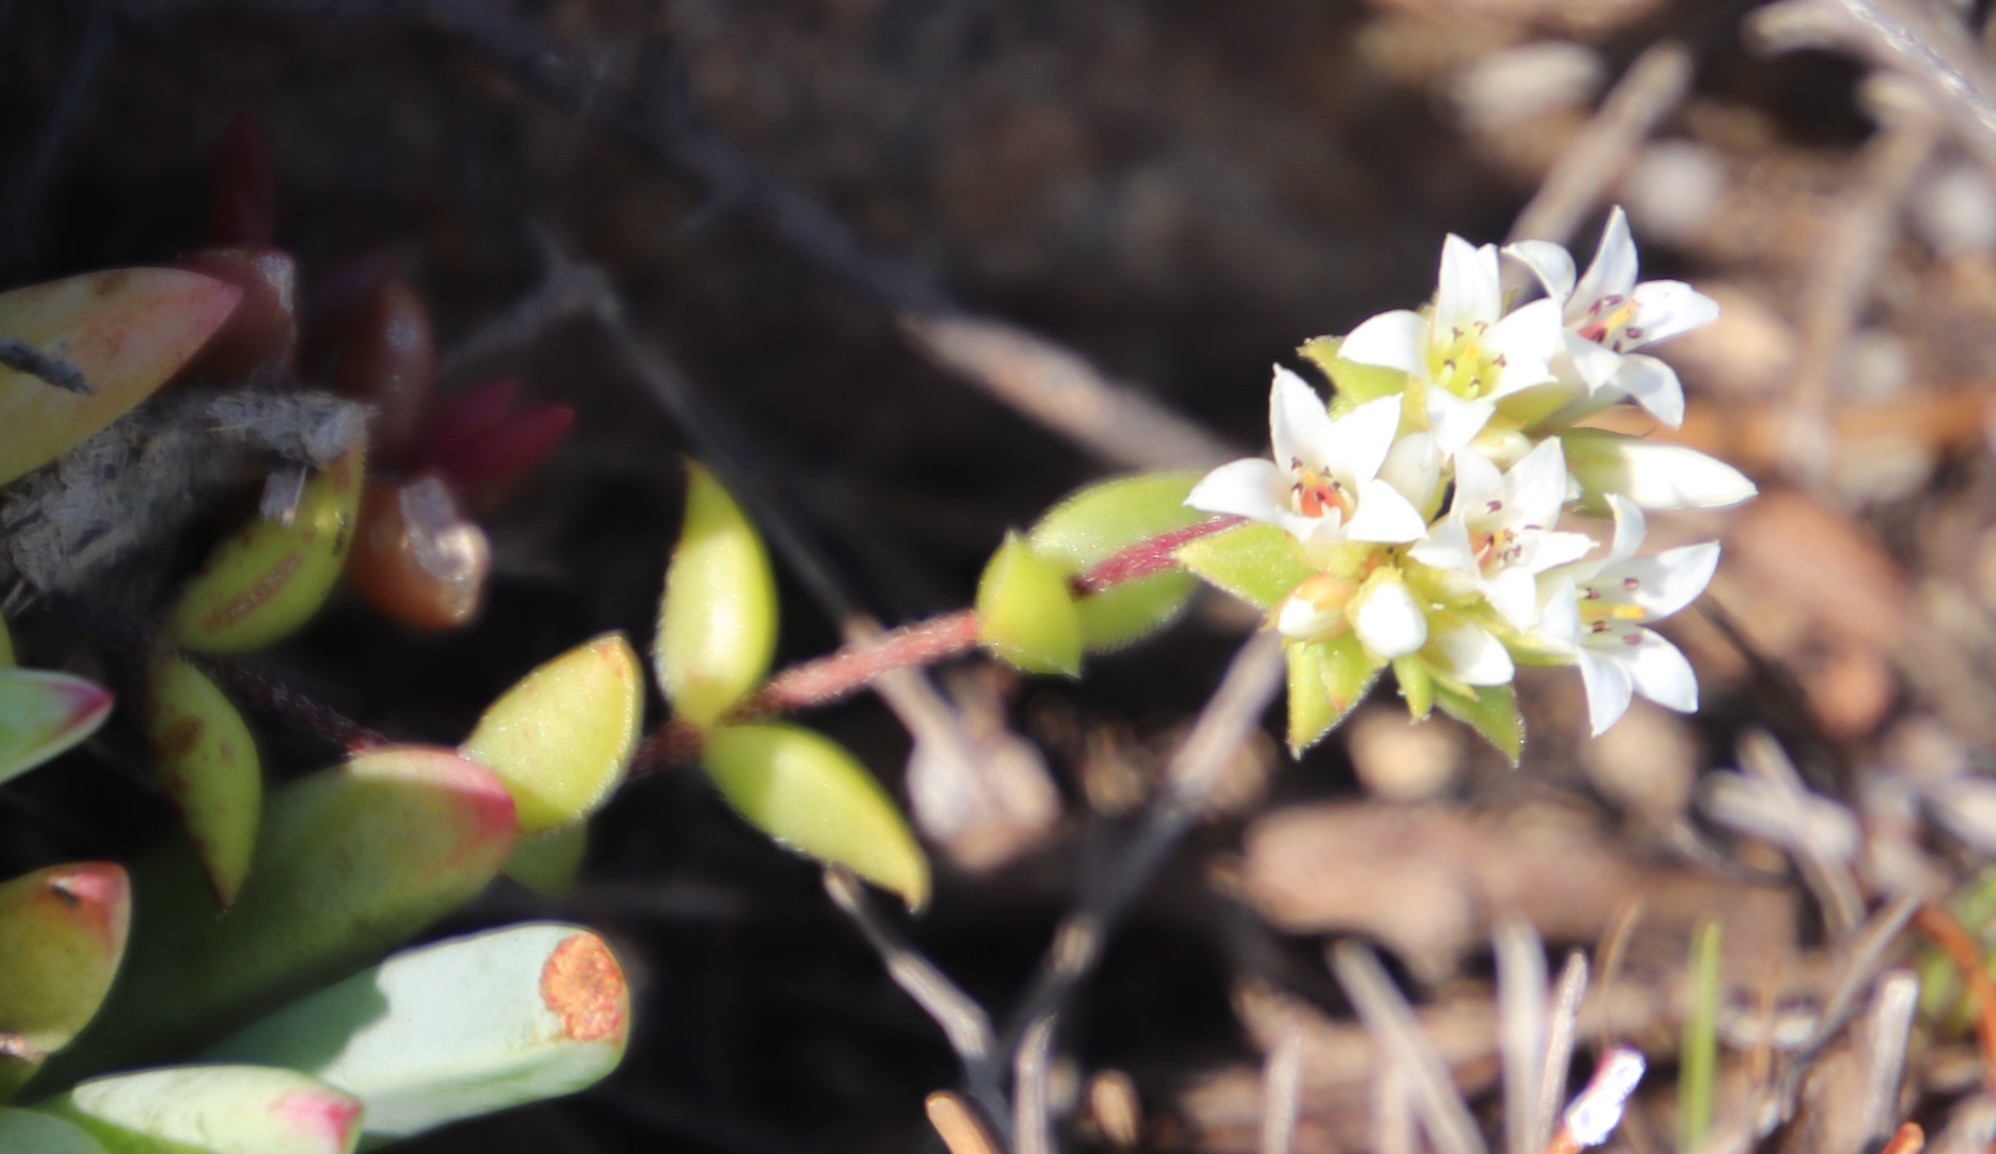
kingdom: Plantae
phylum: Tracheophyta
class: Magnoliopsida
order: Saxifragales
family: Crassulaceae
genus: Crassula
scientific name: Crassula obovata
